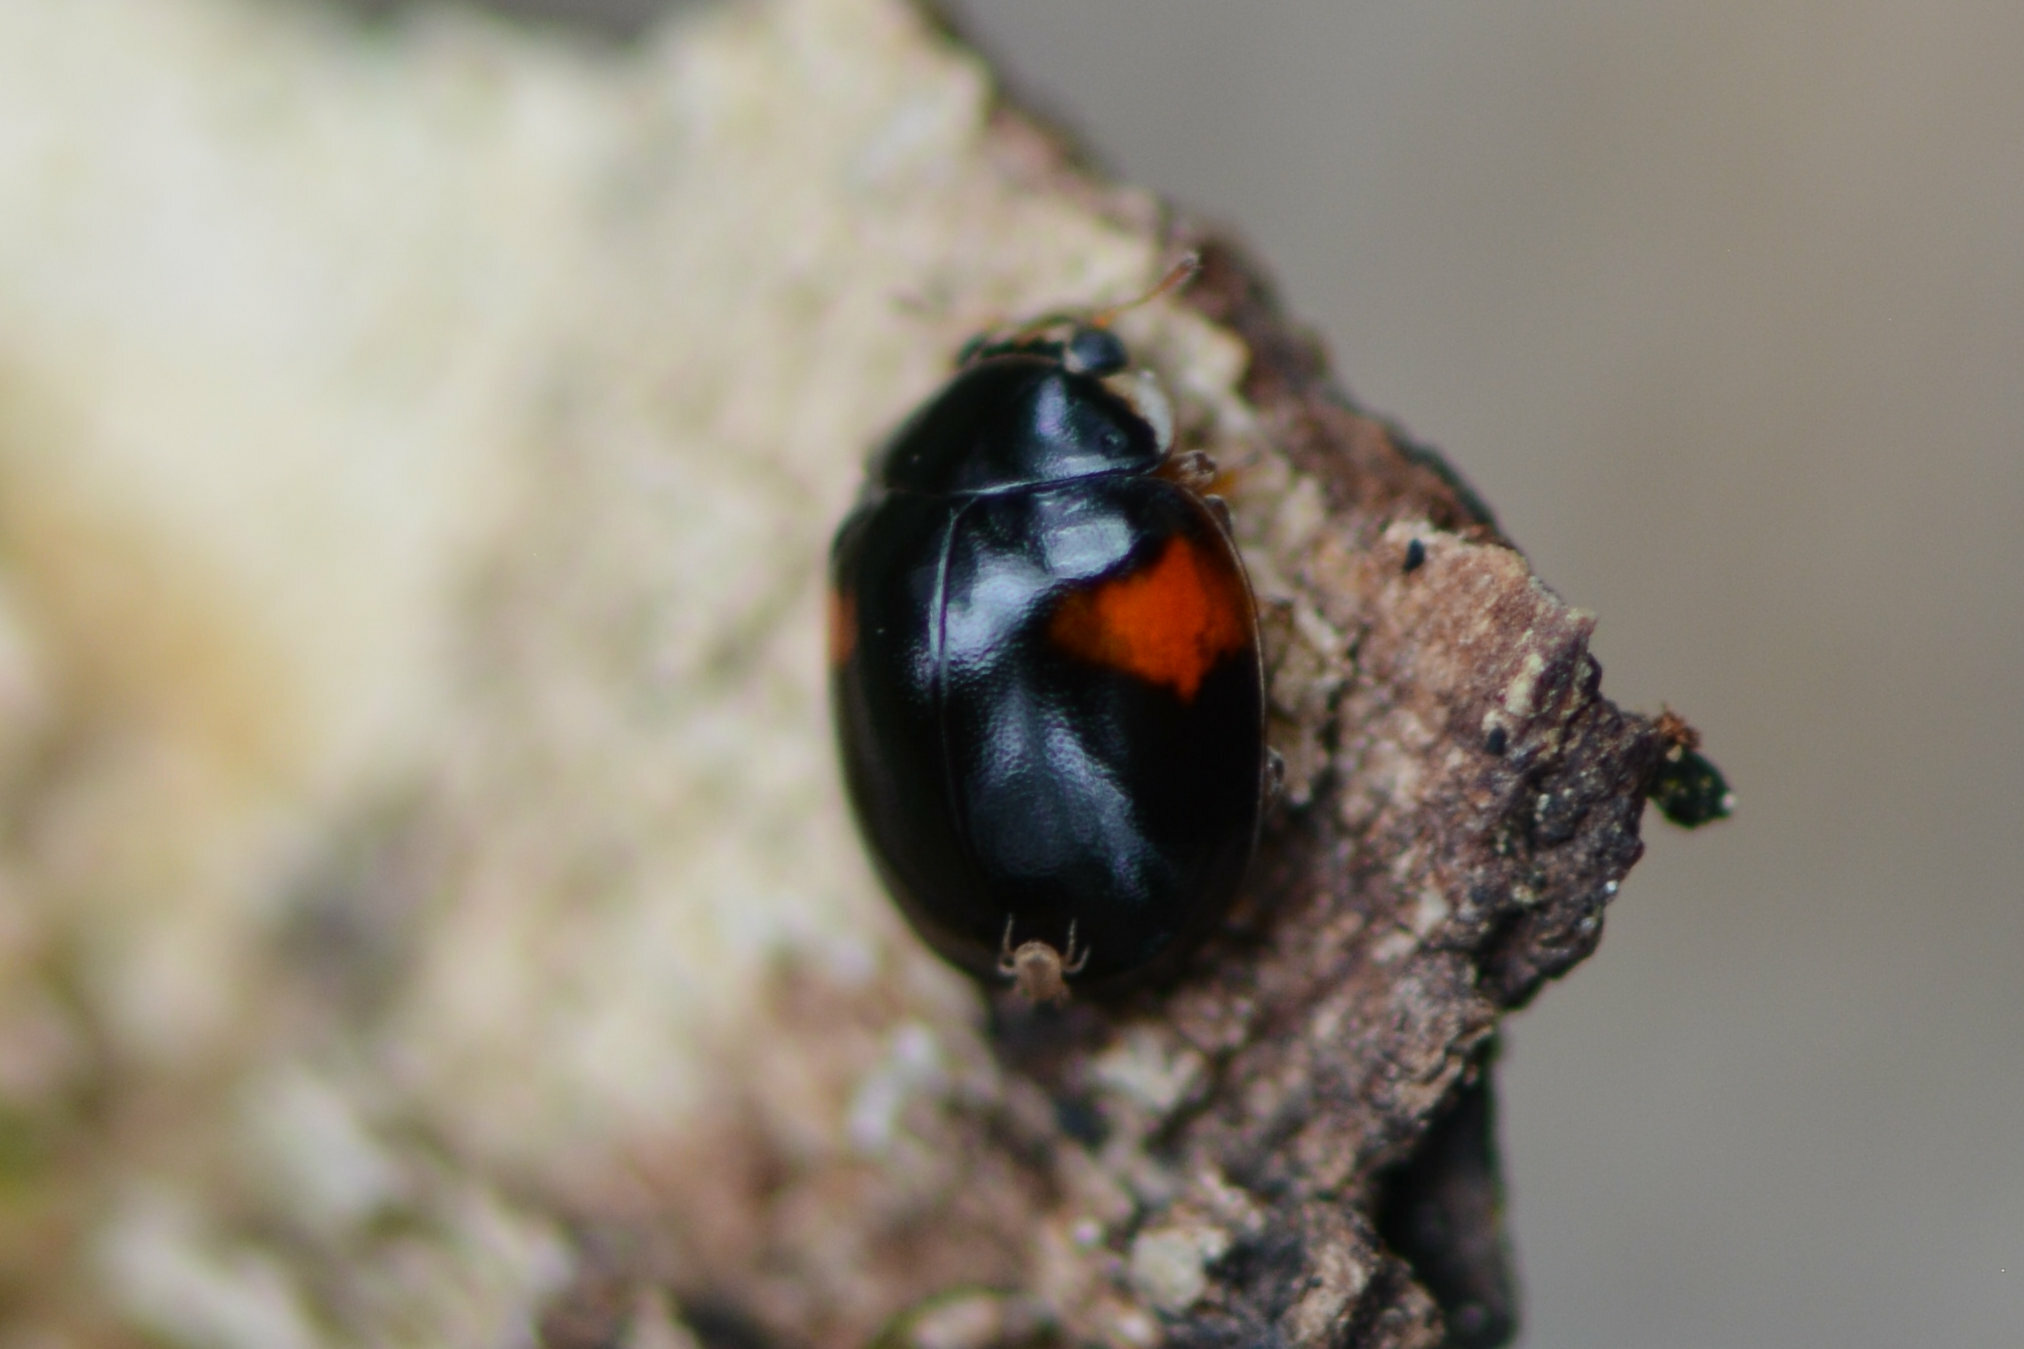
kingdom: Animalia
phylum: Arthropoda
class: Insecta
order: Coleoptera
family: Coccinellidae
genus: Adalia
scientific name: Adalia decempunctata
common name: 10-spot ladybird
